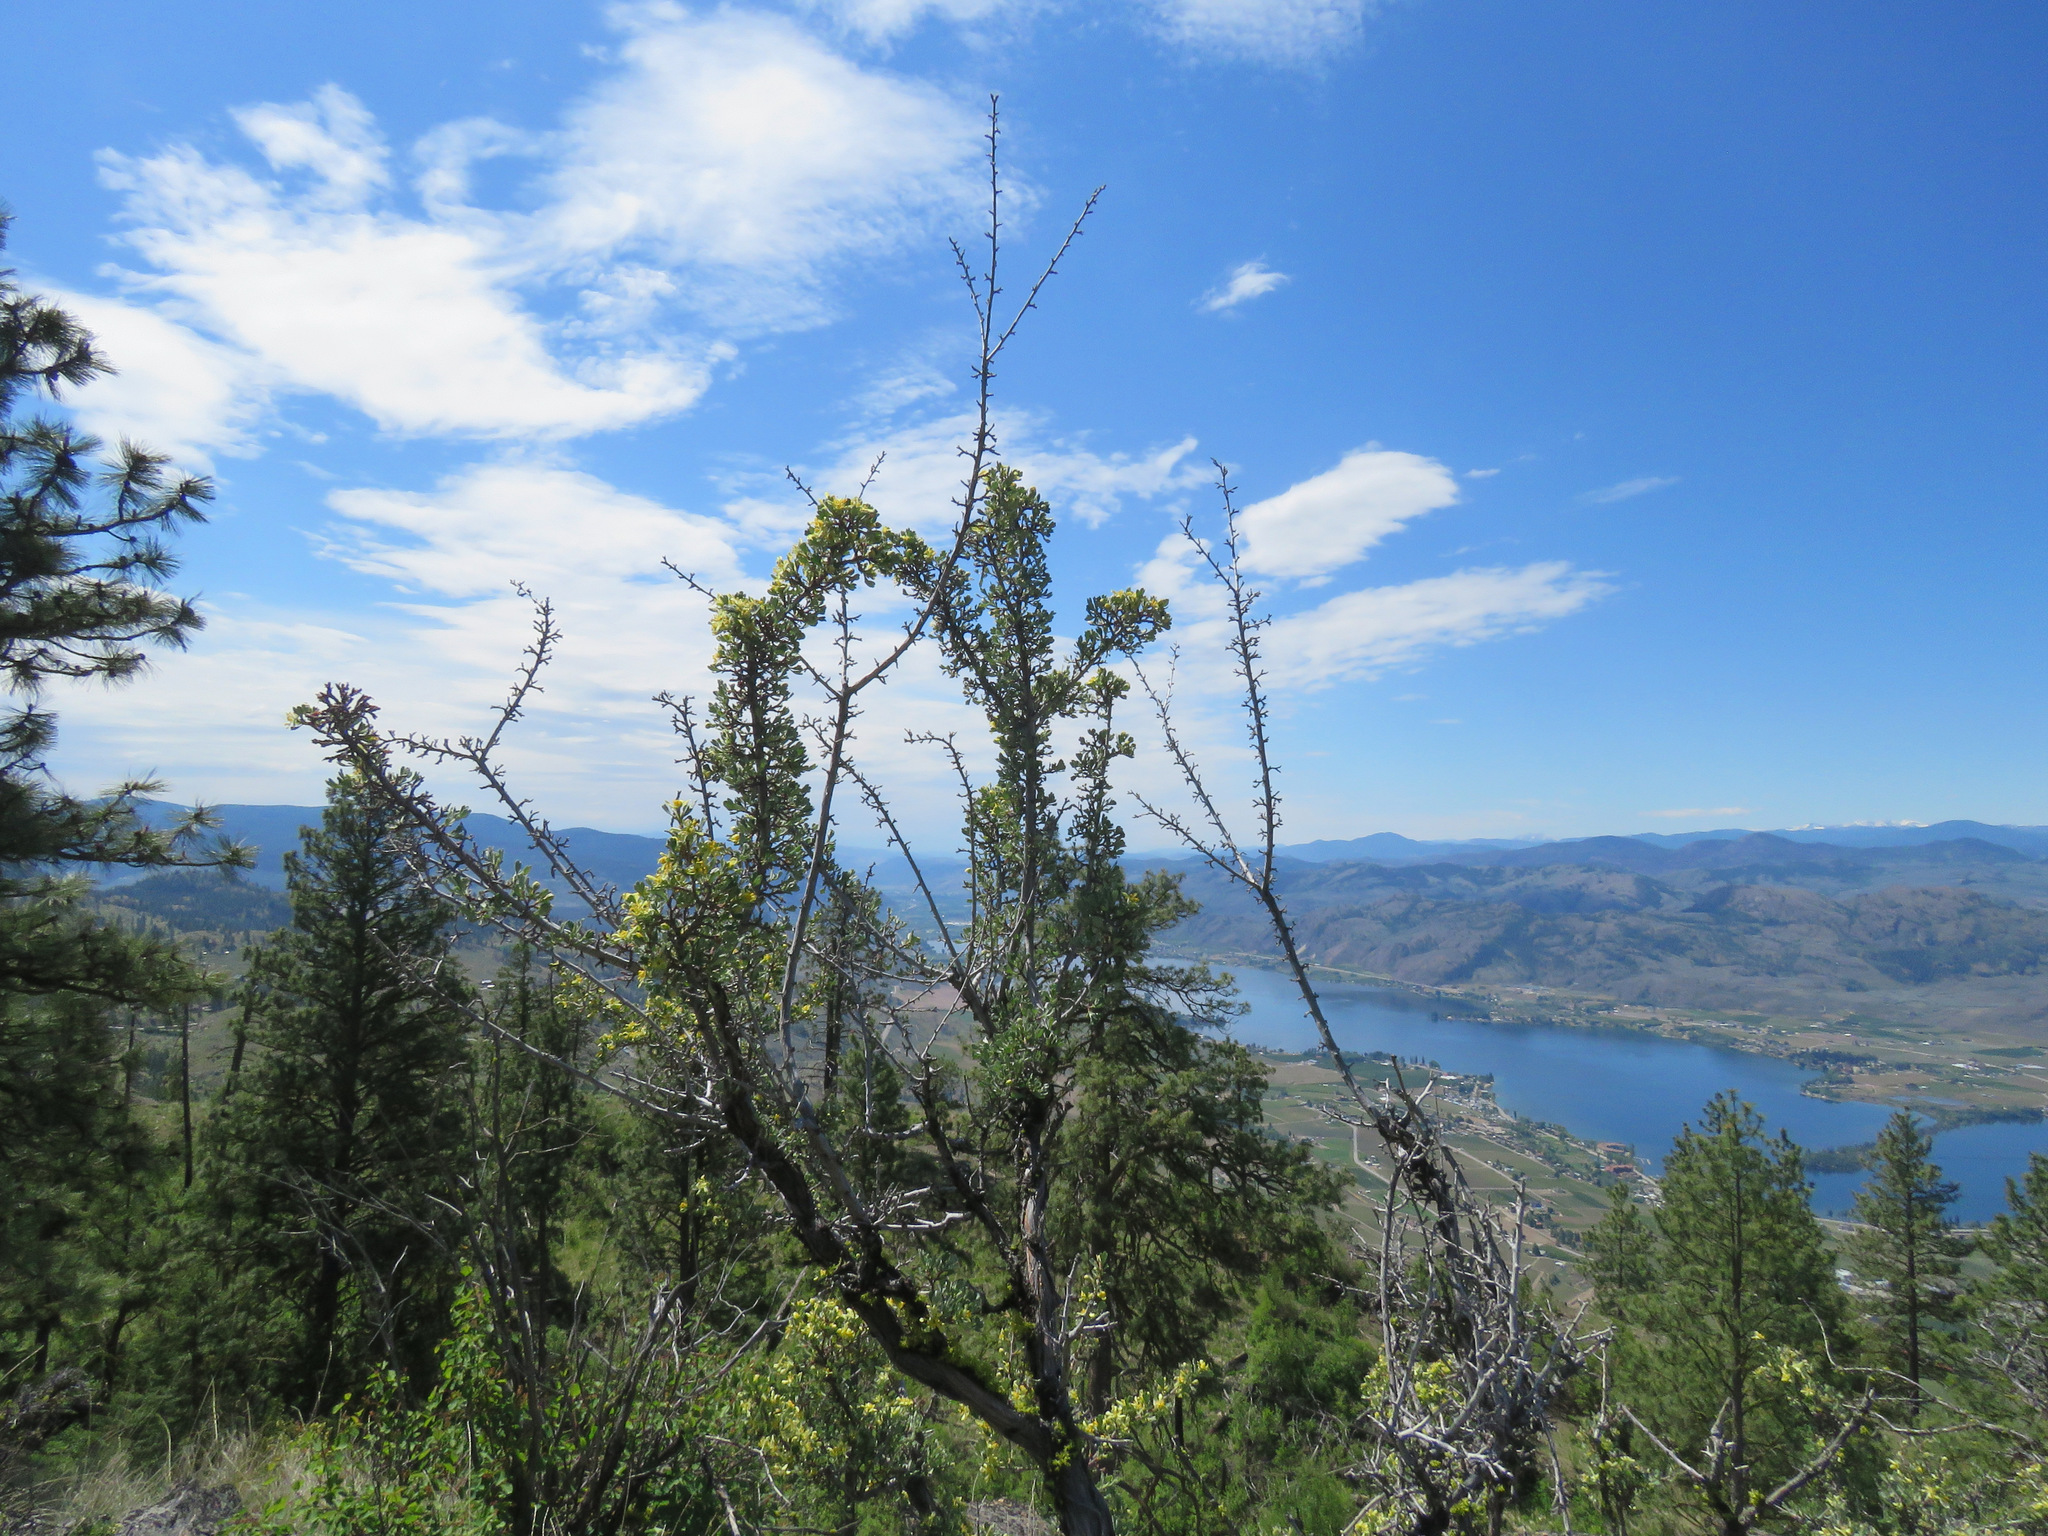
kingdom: Plantae
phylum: Tracheophyta
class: Magnoliopsida
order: Rosales
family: Rosaceae
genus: Purshia
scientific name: Purshia tridentata
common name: Antelope bitterbrush
